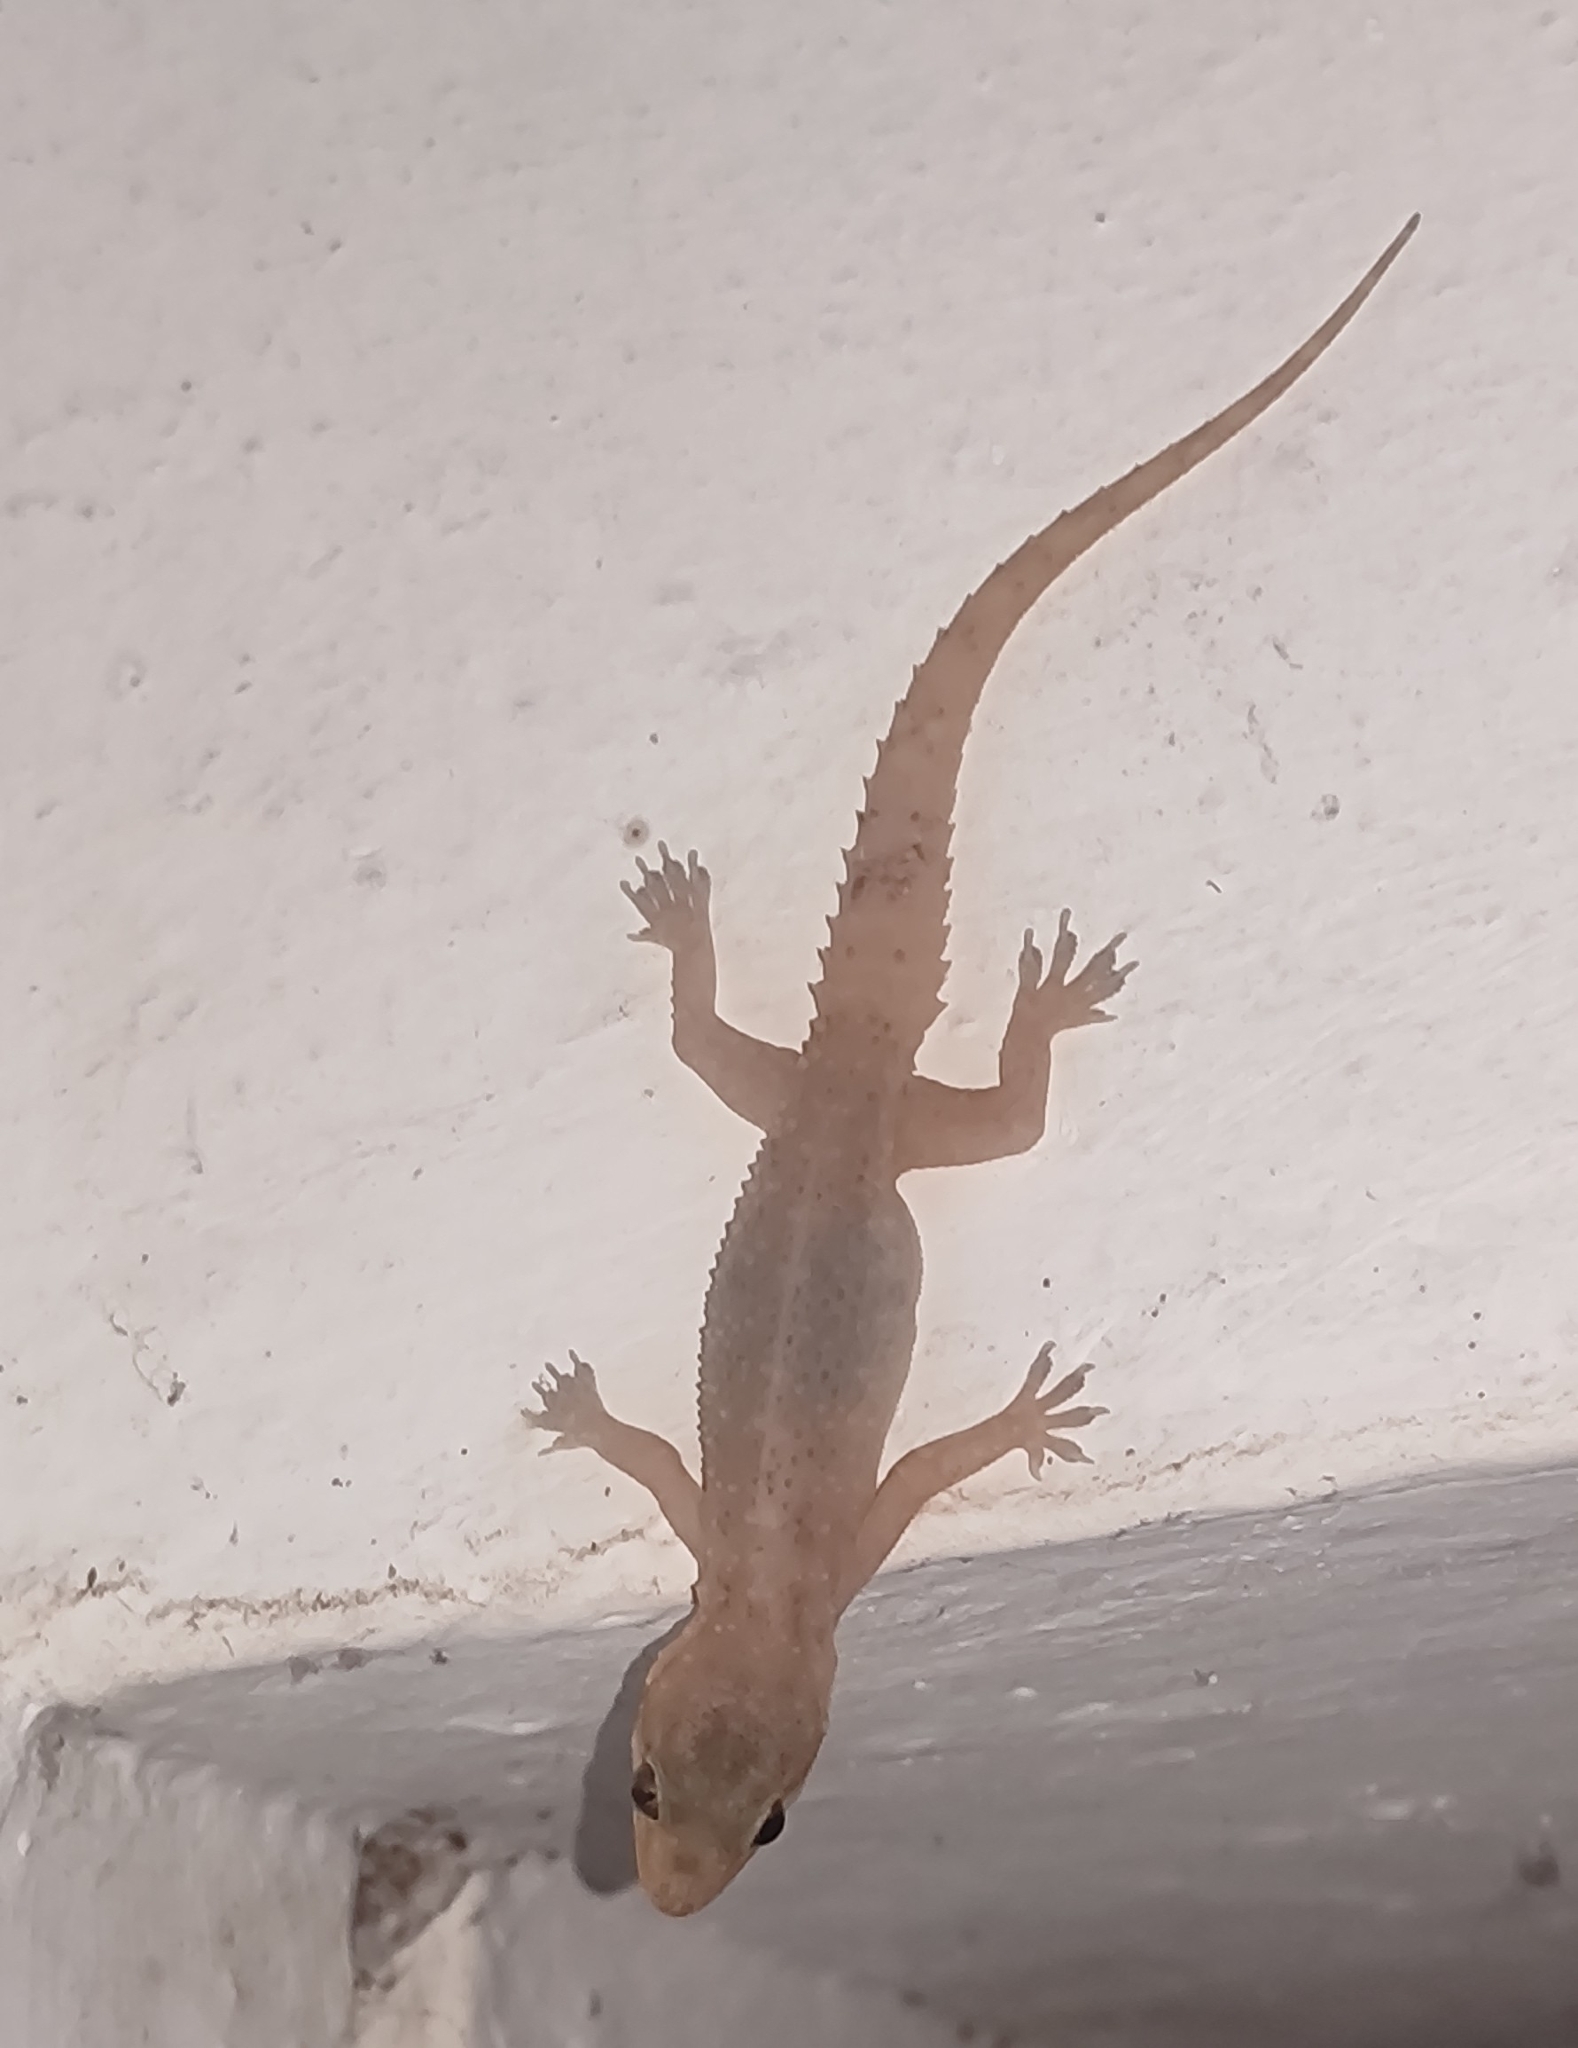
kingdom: Animalia
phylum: Chordata
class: Squamata
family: Gekkonidae
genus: Hemidactylus
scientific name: Hemidactylus brookii
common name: Brook's house gecko
